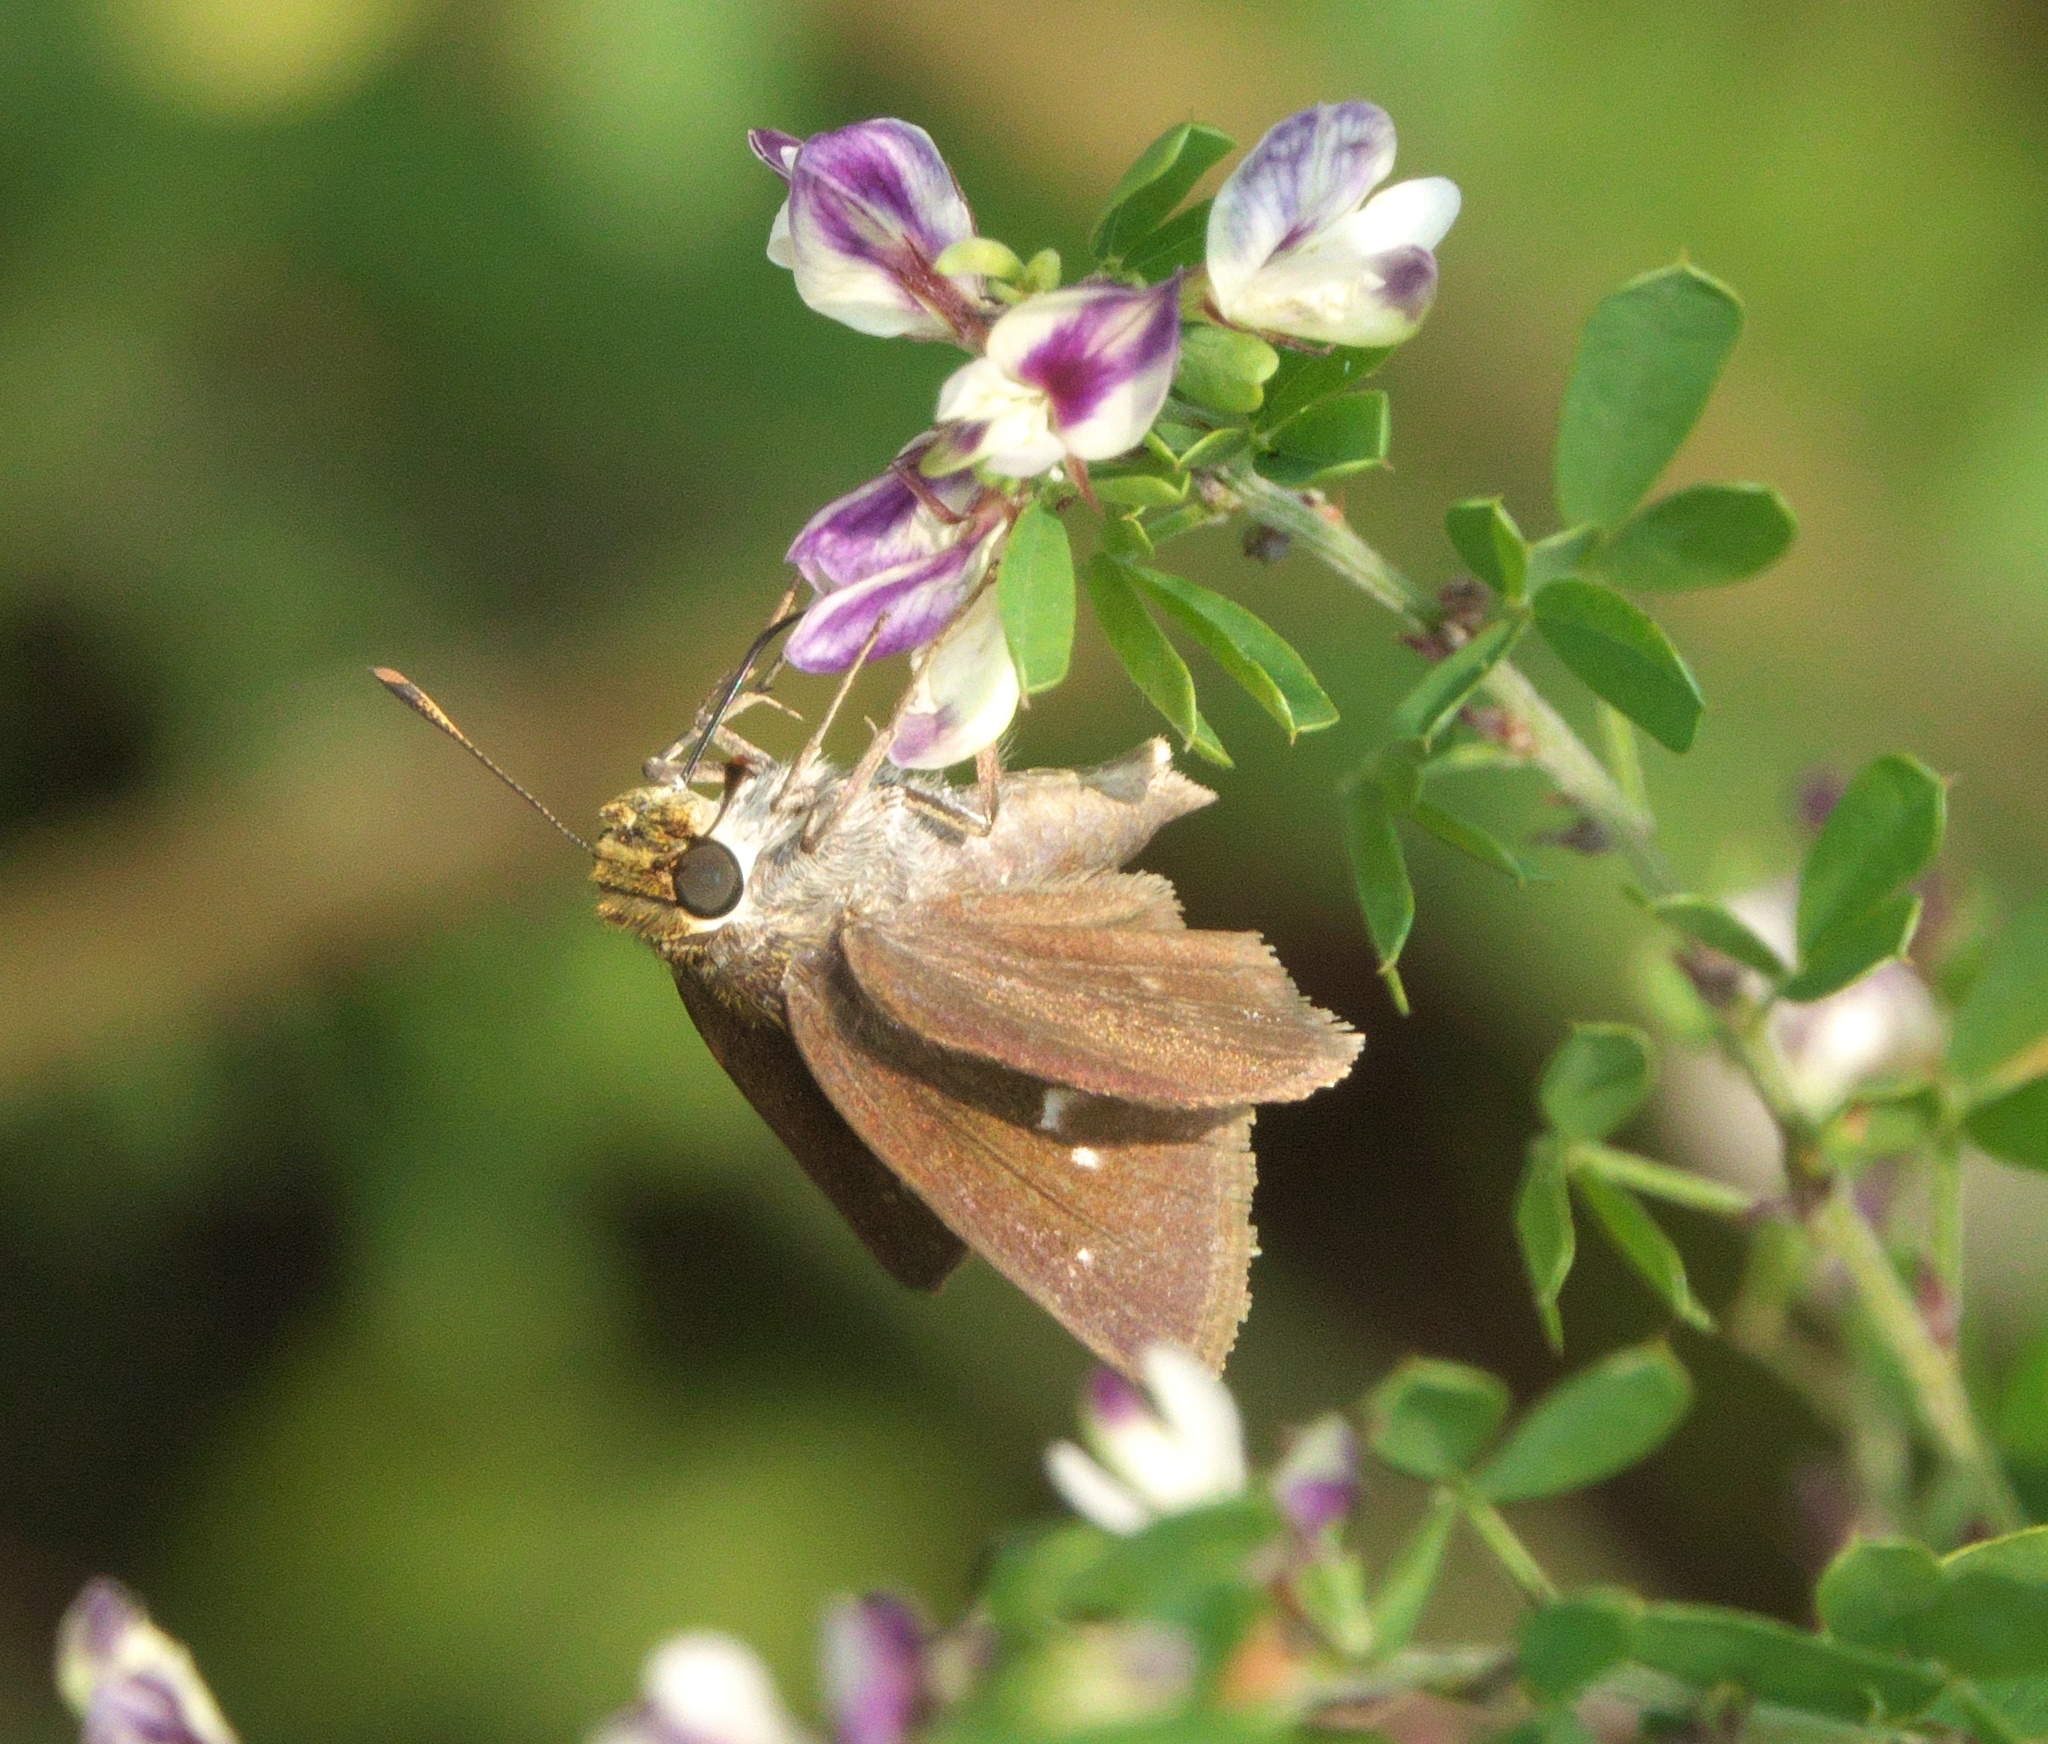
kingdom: Animalia
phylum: Arthropoda
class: Insecta
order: Lepidoptera
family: Hesperiidae
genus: Lerema
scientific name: Lerema accius
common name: Clouded skipper
